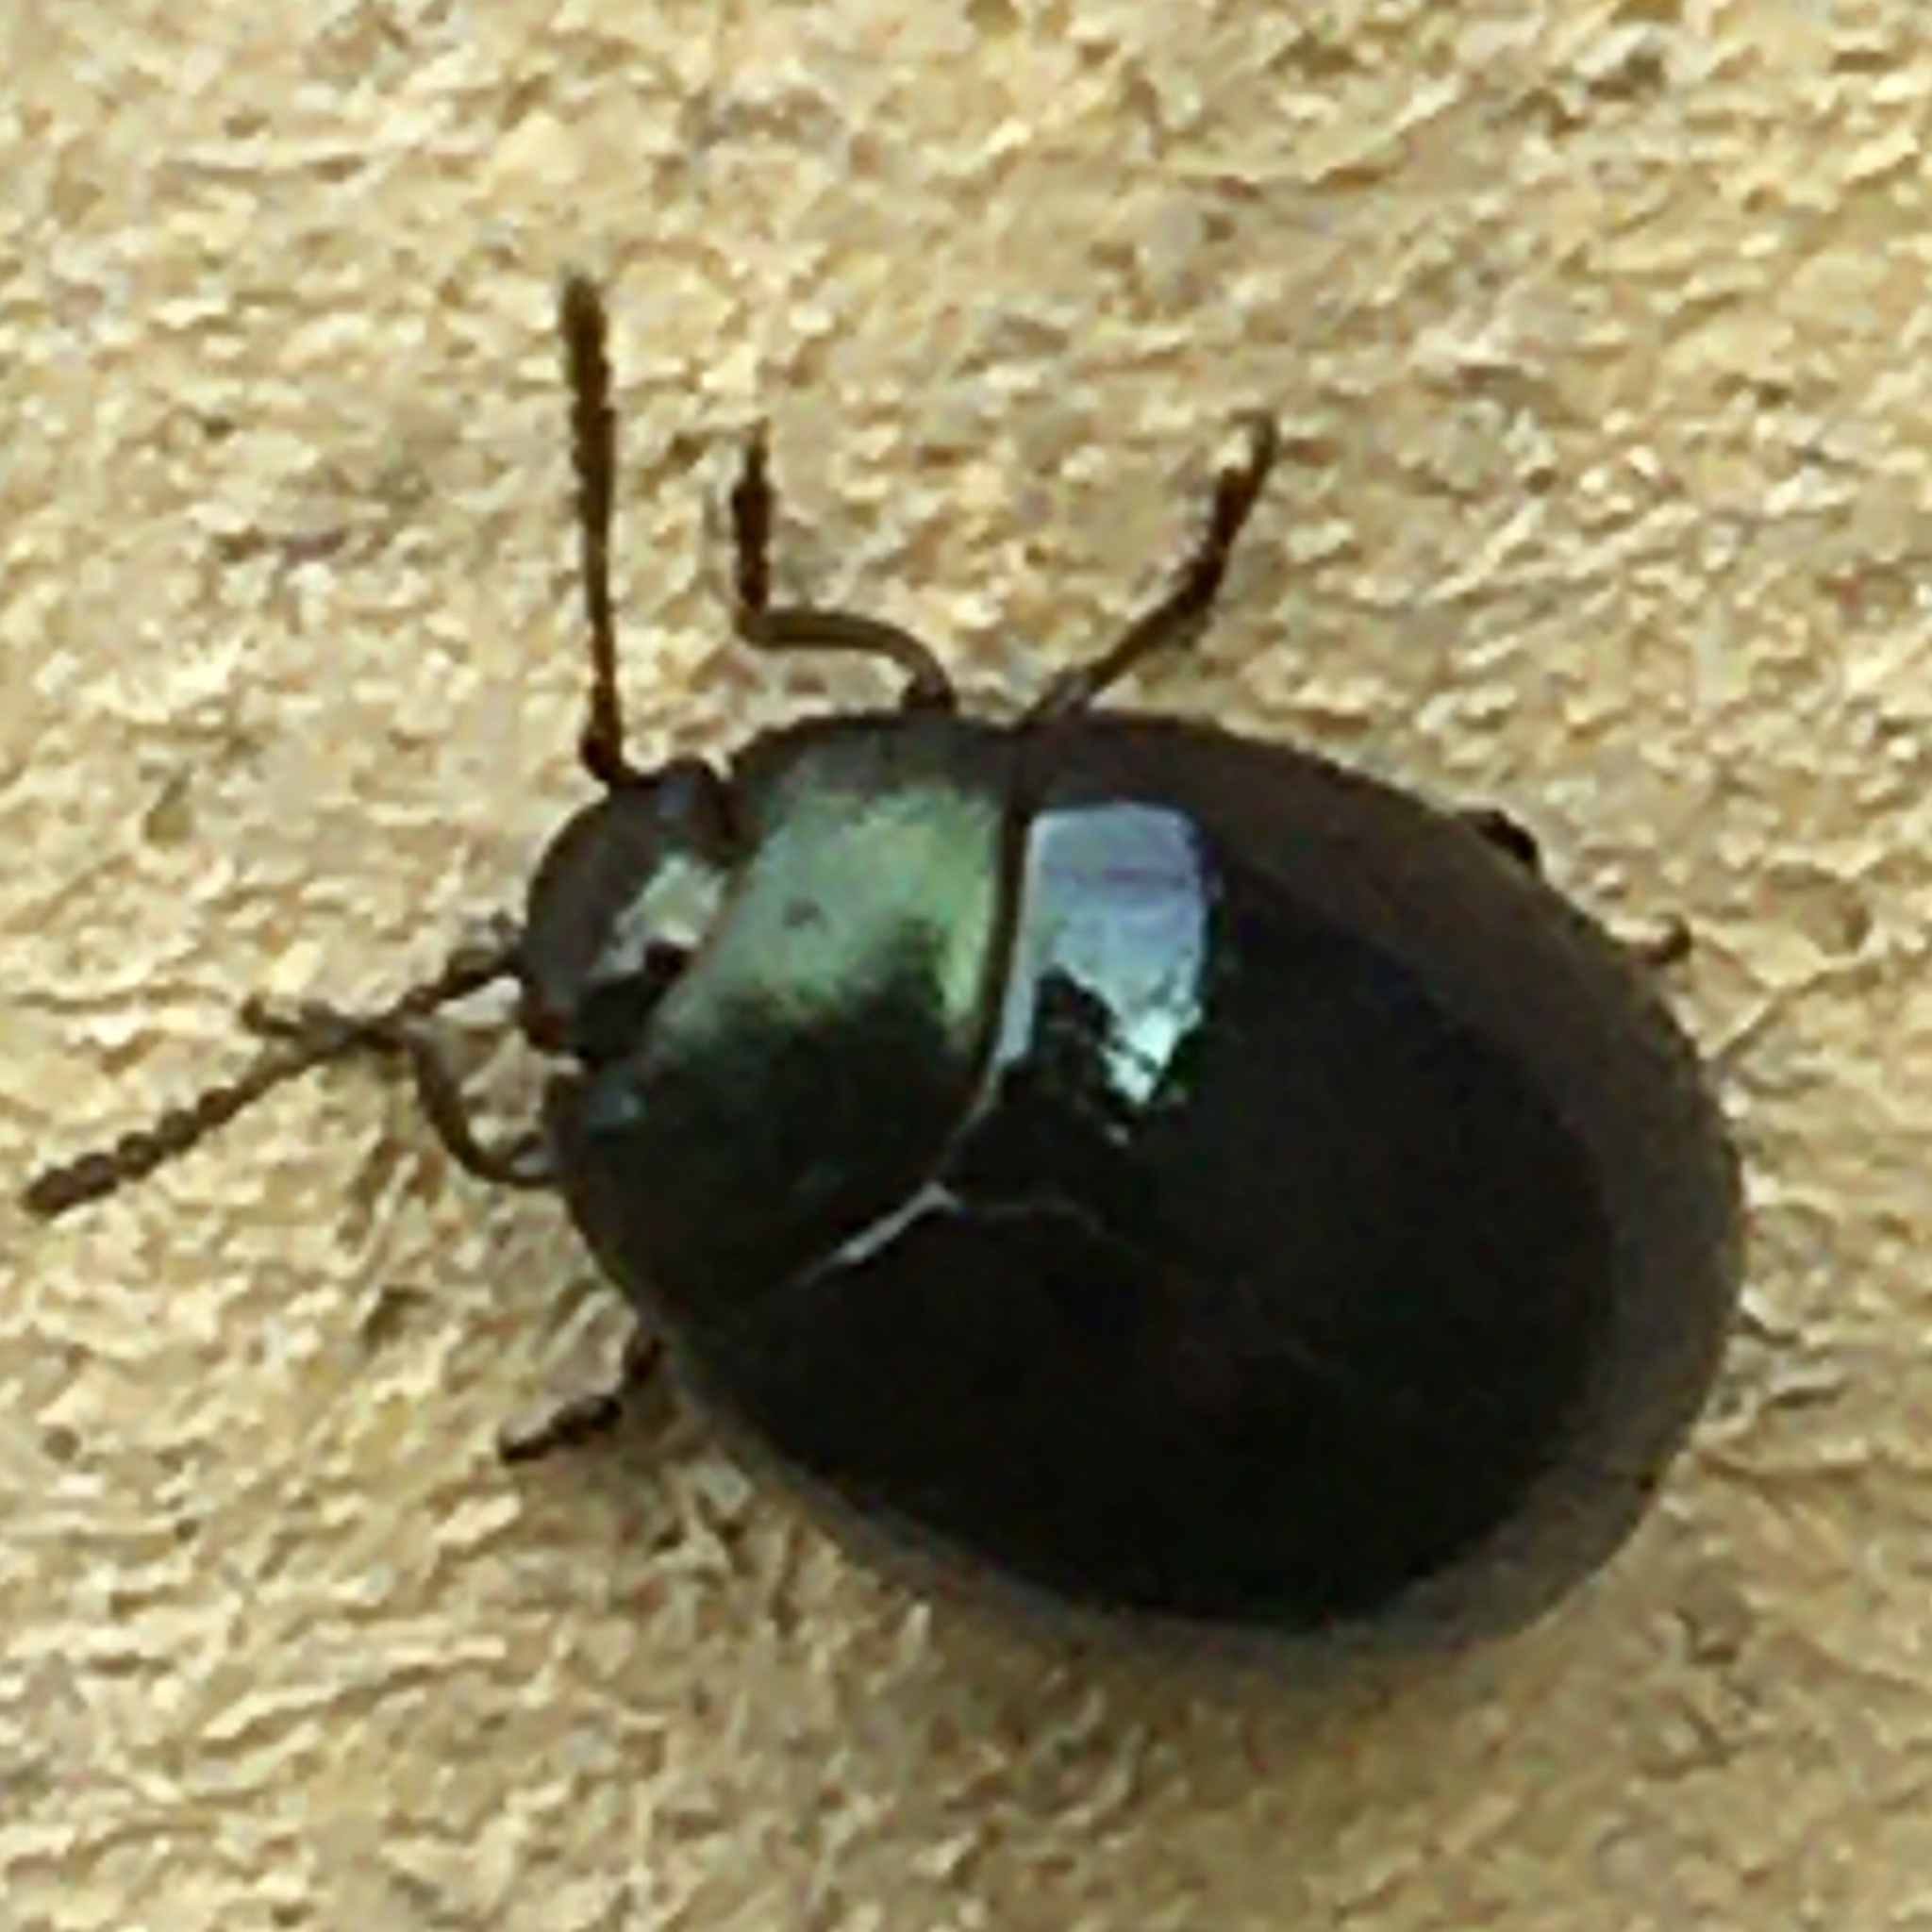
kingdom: Animalia
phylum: Arthropoda
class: Insecta
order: Coleoptera
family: Chrysomelidae
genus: Phaedon
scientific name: Phaedon viridis
